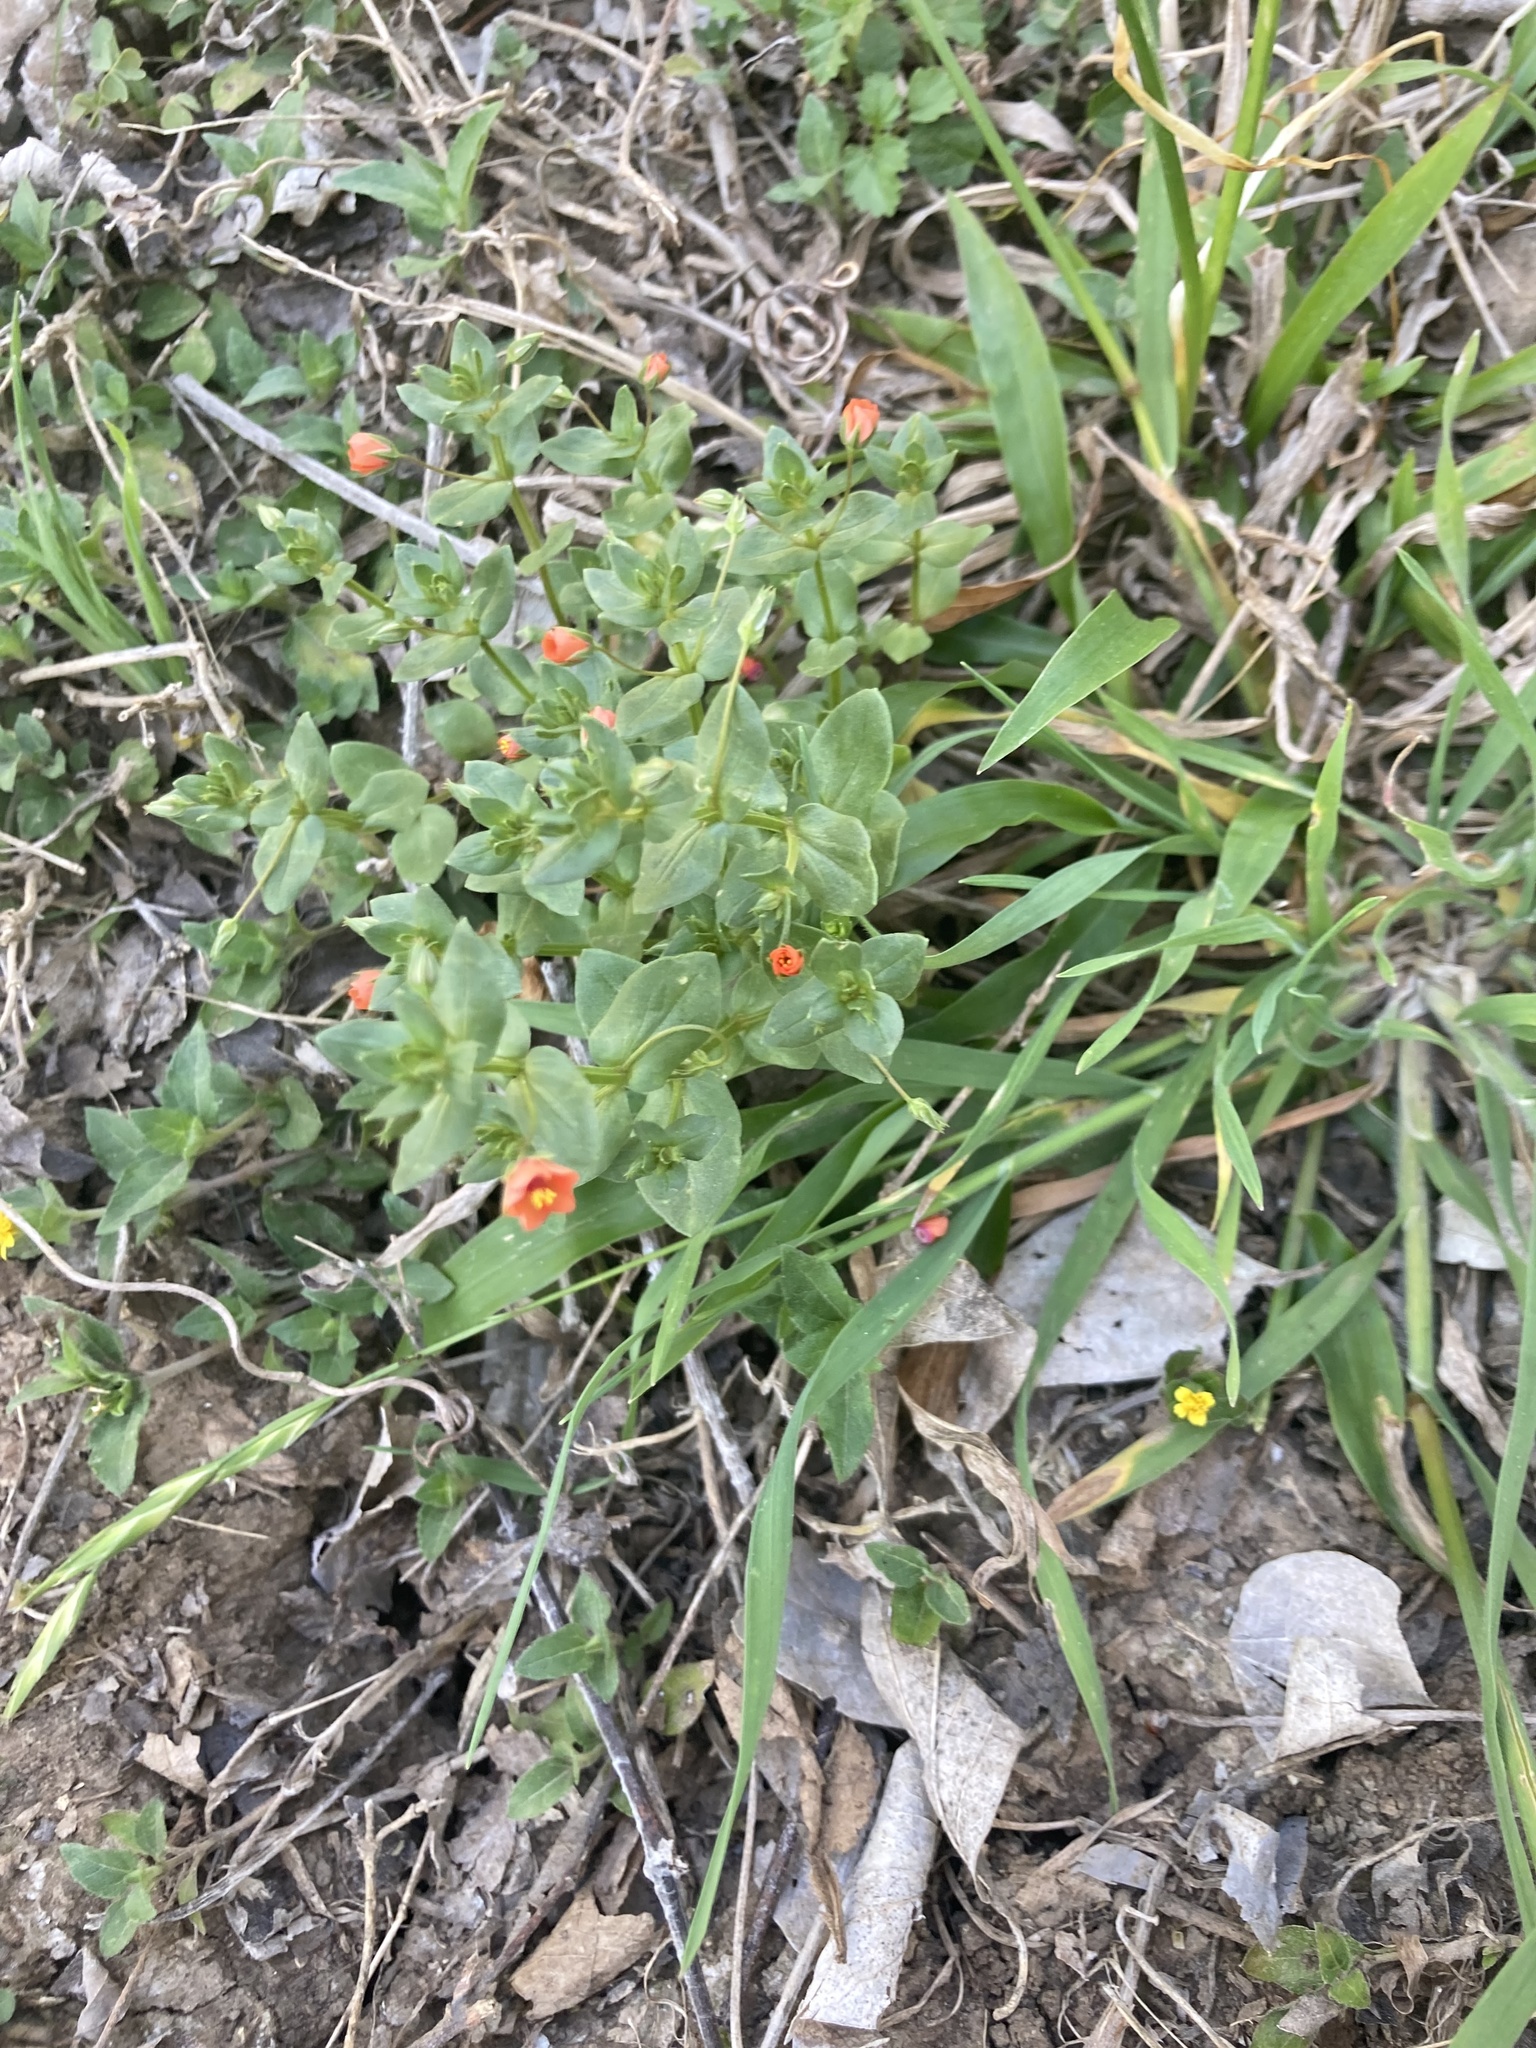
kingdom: Plantae
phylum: Tracheophyta
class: Magnoliopsida
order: Ericales
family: Primulaceae
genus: Lysimachia
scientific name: Lysimachia arvensis
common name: Scarlet pimpernel
